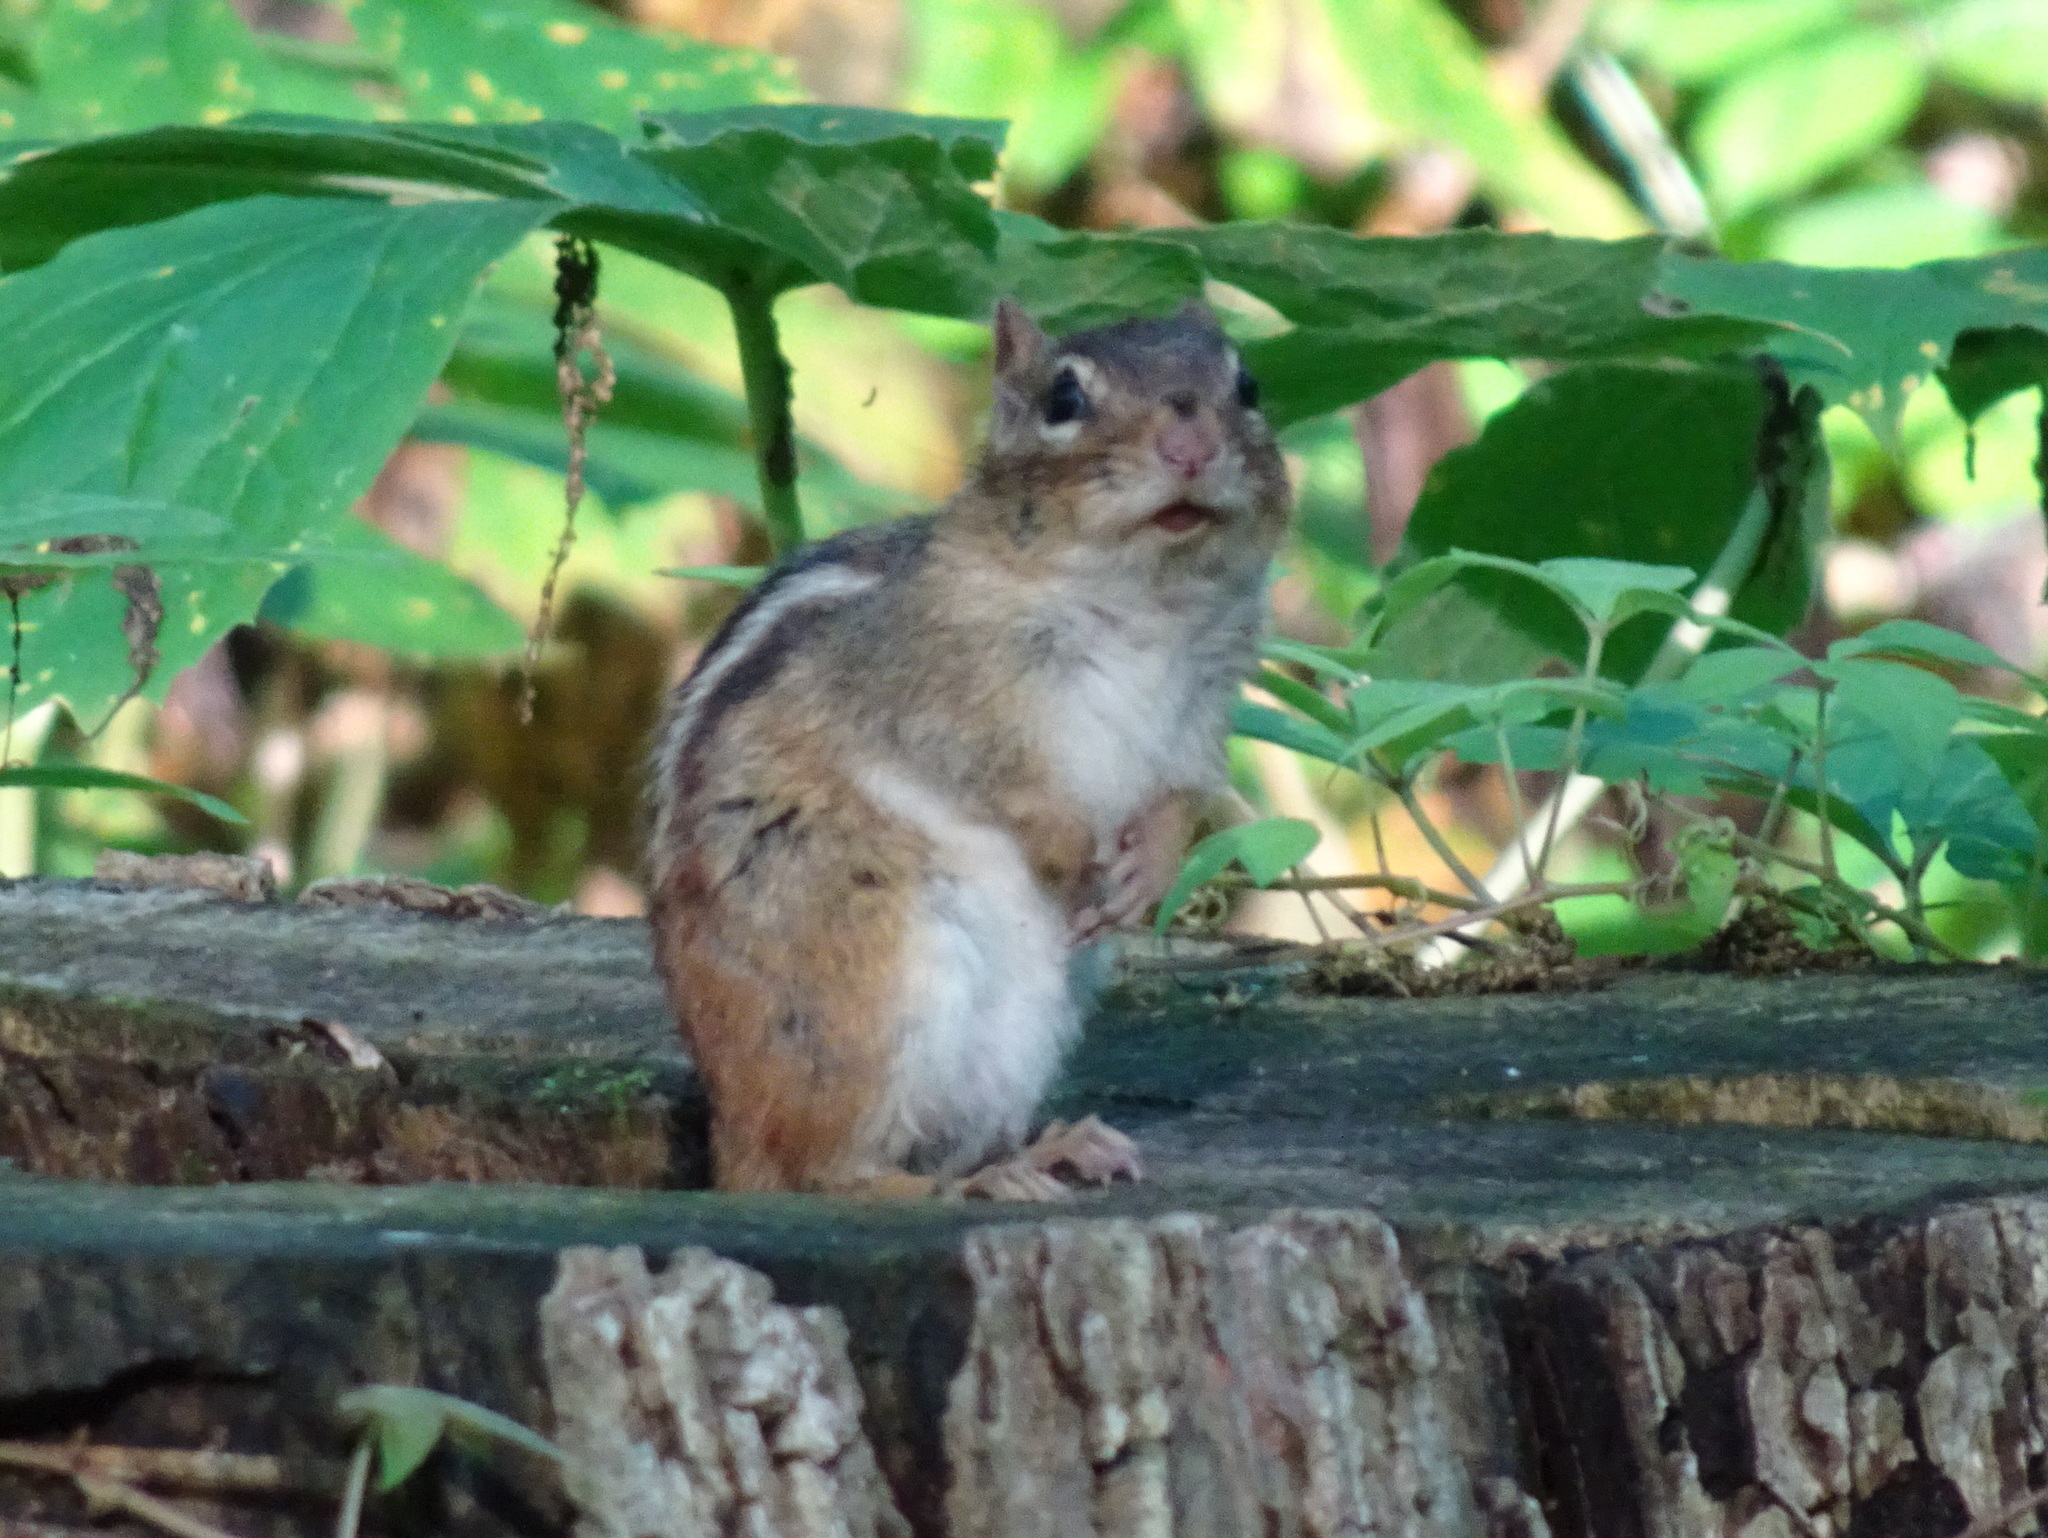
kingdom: Animalia
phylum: Chordata
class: Mammalia
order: Rodentia
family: Sciuridae
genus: Tamias
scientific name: Tamias striatus
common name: Eastern chipmunk
